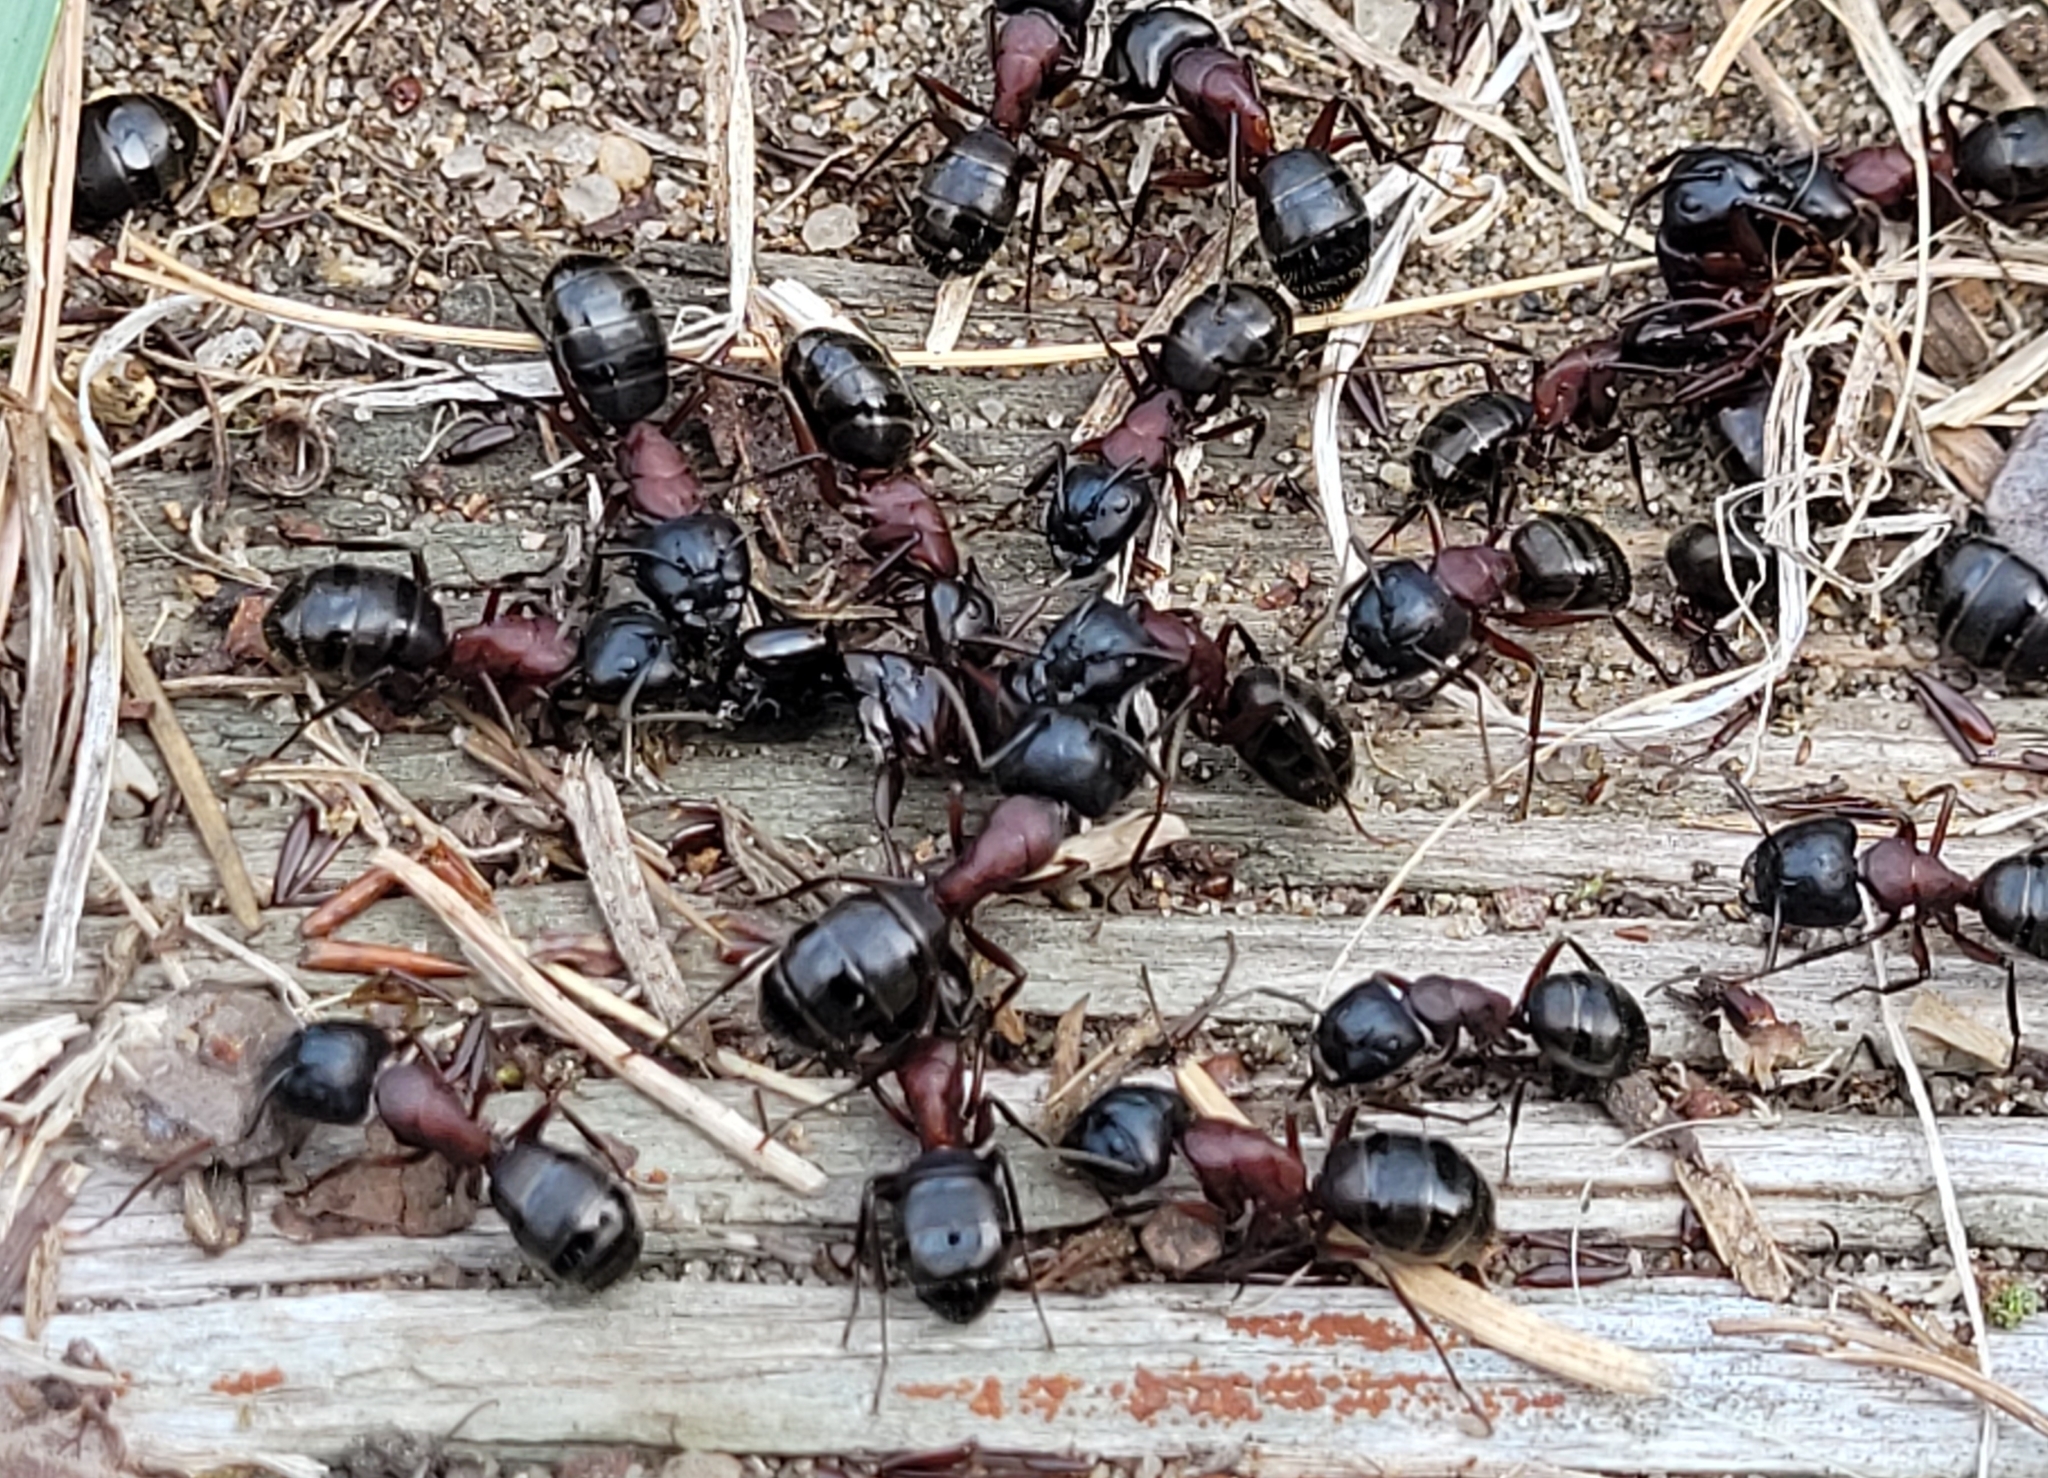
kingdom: Animalia
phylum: Arthropoda
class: Insecta
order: Hymenoptera
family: Formicidae
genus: Camponotus
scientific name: Camponotus novaeboracensis
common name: New york carpenter ant
